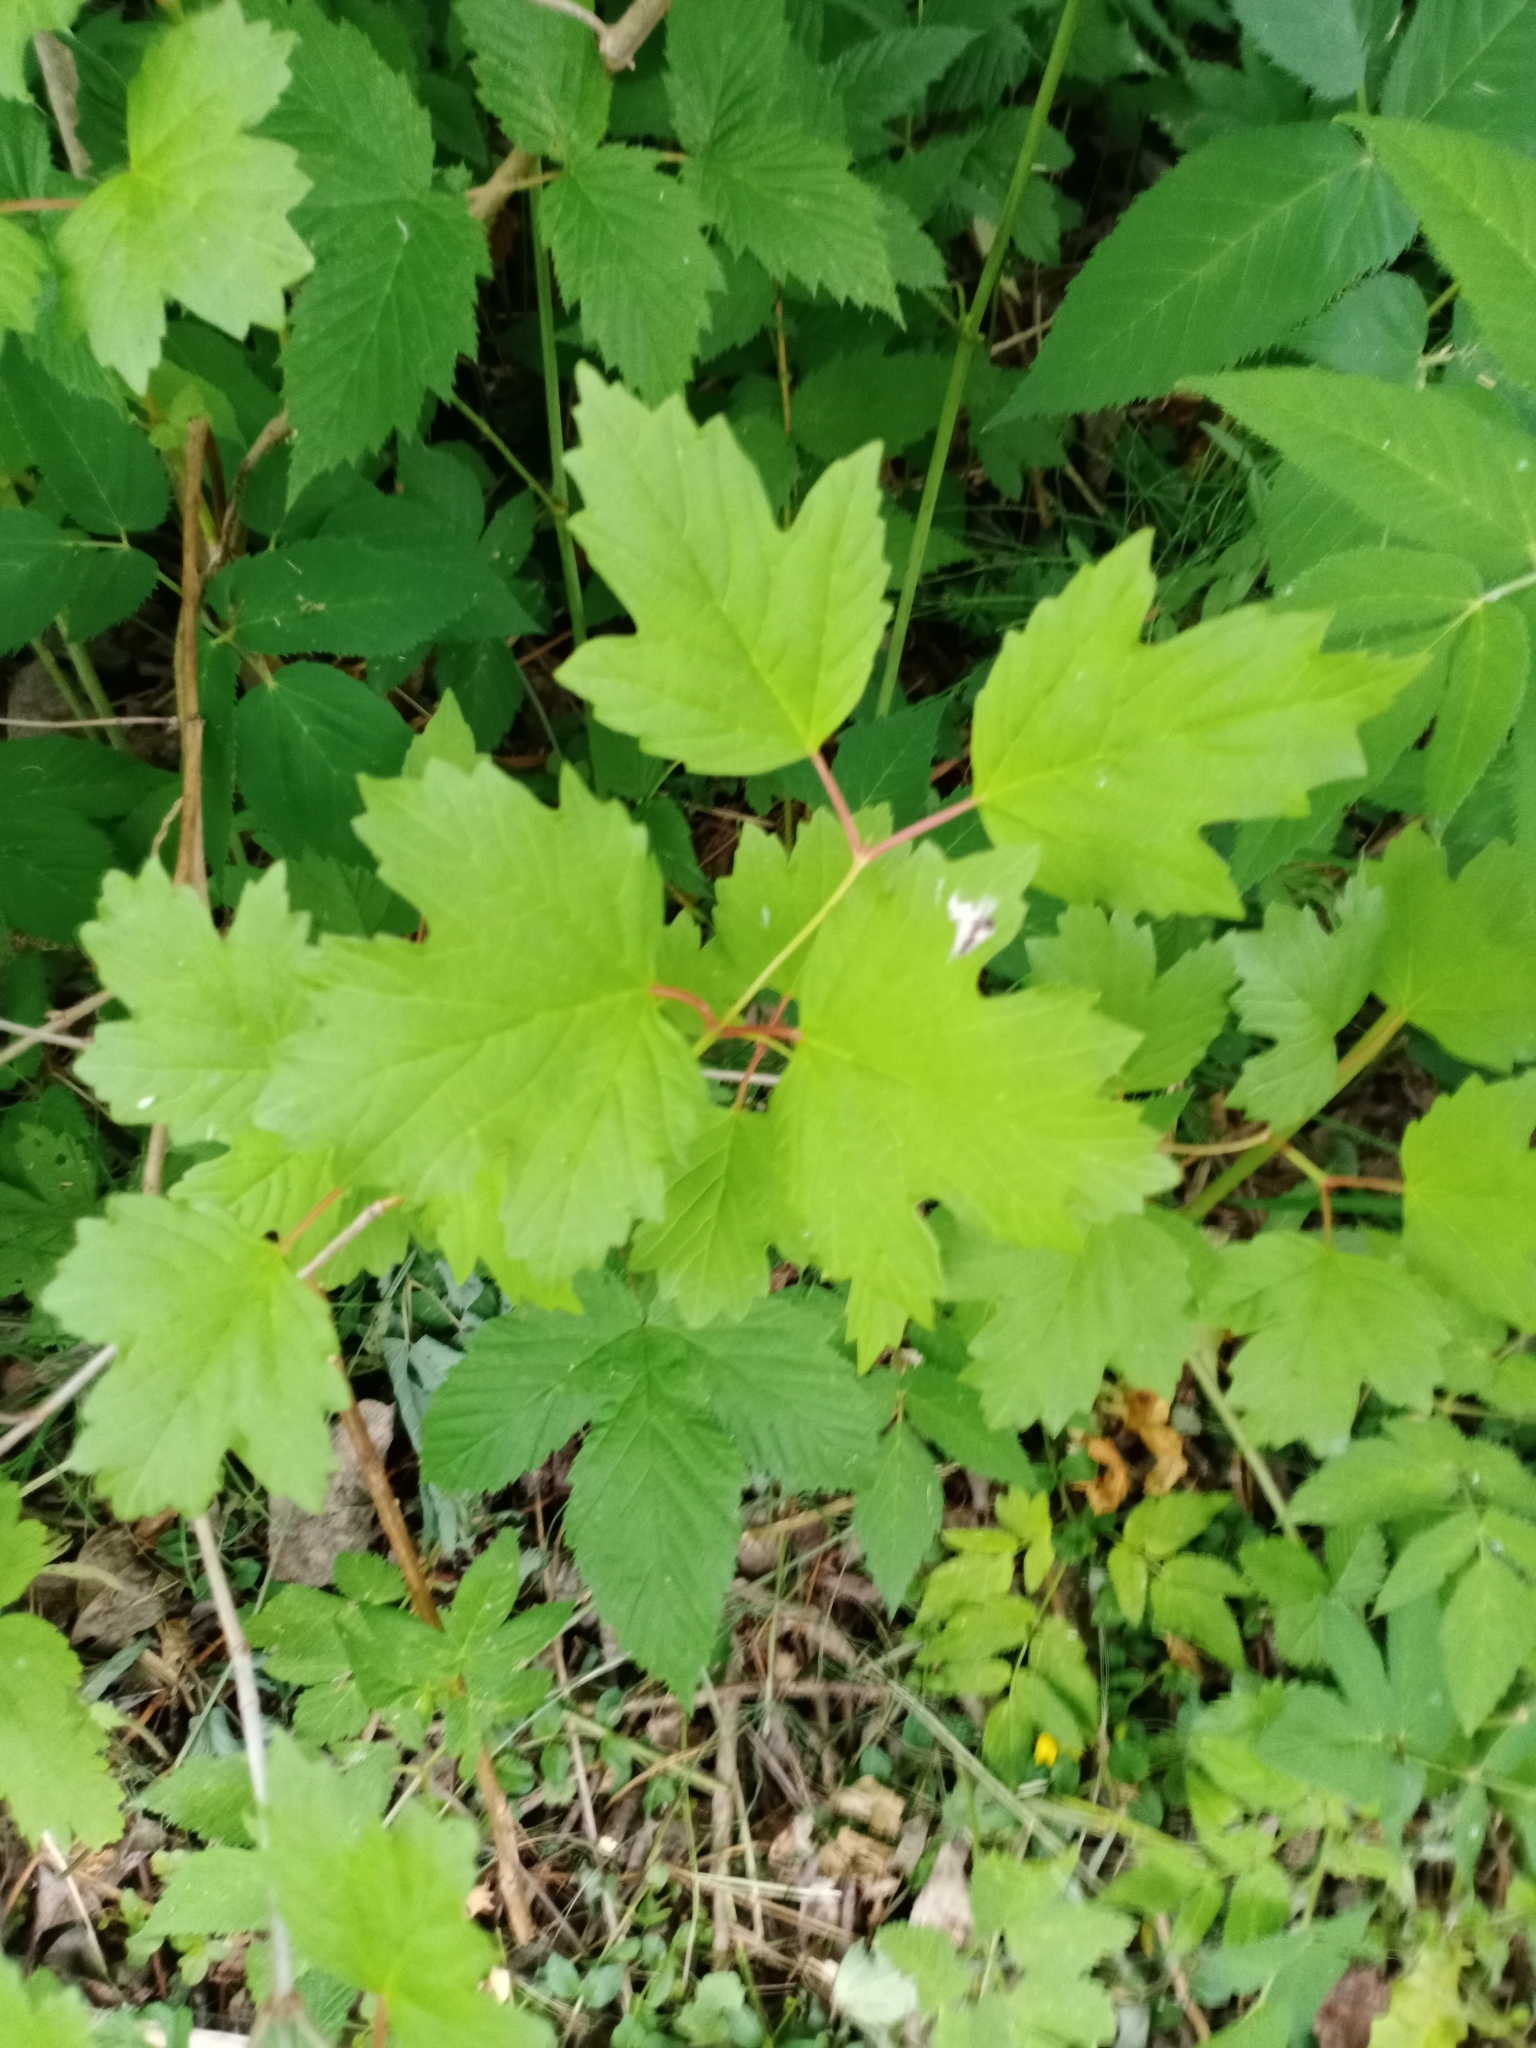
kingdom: Plantae
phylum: Tracheophyta
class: Magnoliopsida
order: Dipsacales
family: Viburnaceae
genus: Viburnum
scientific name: Viburnum opulus
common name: Guelder-rose
